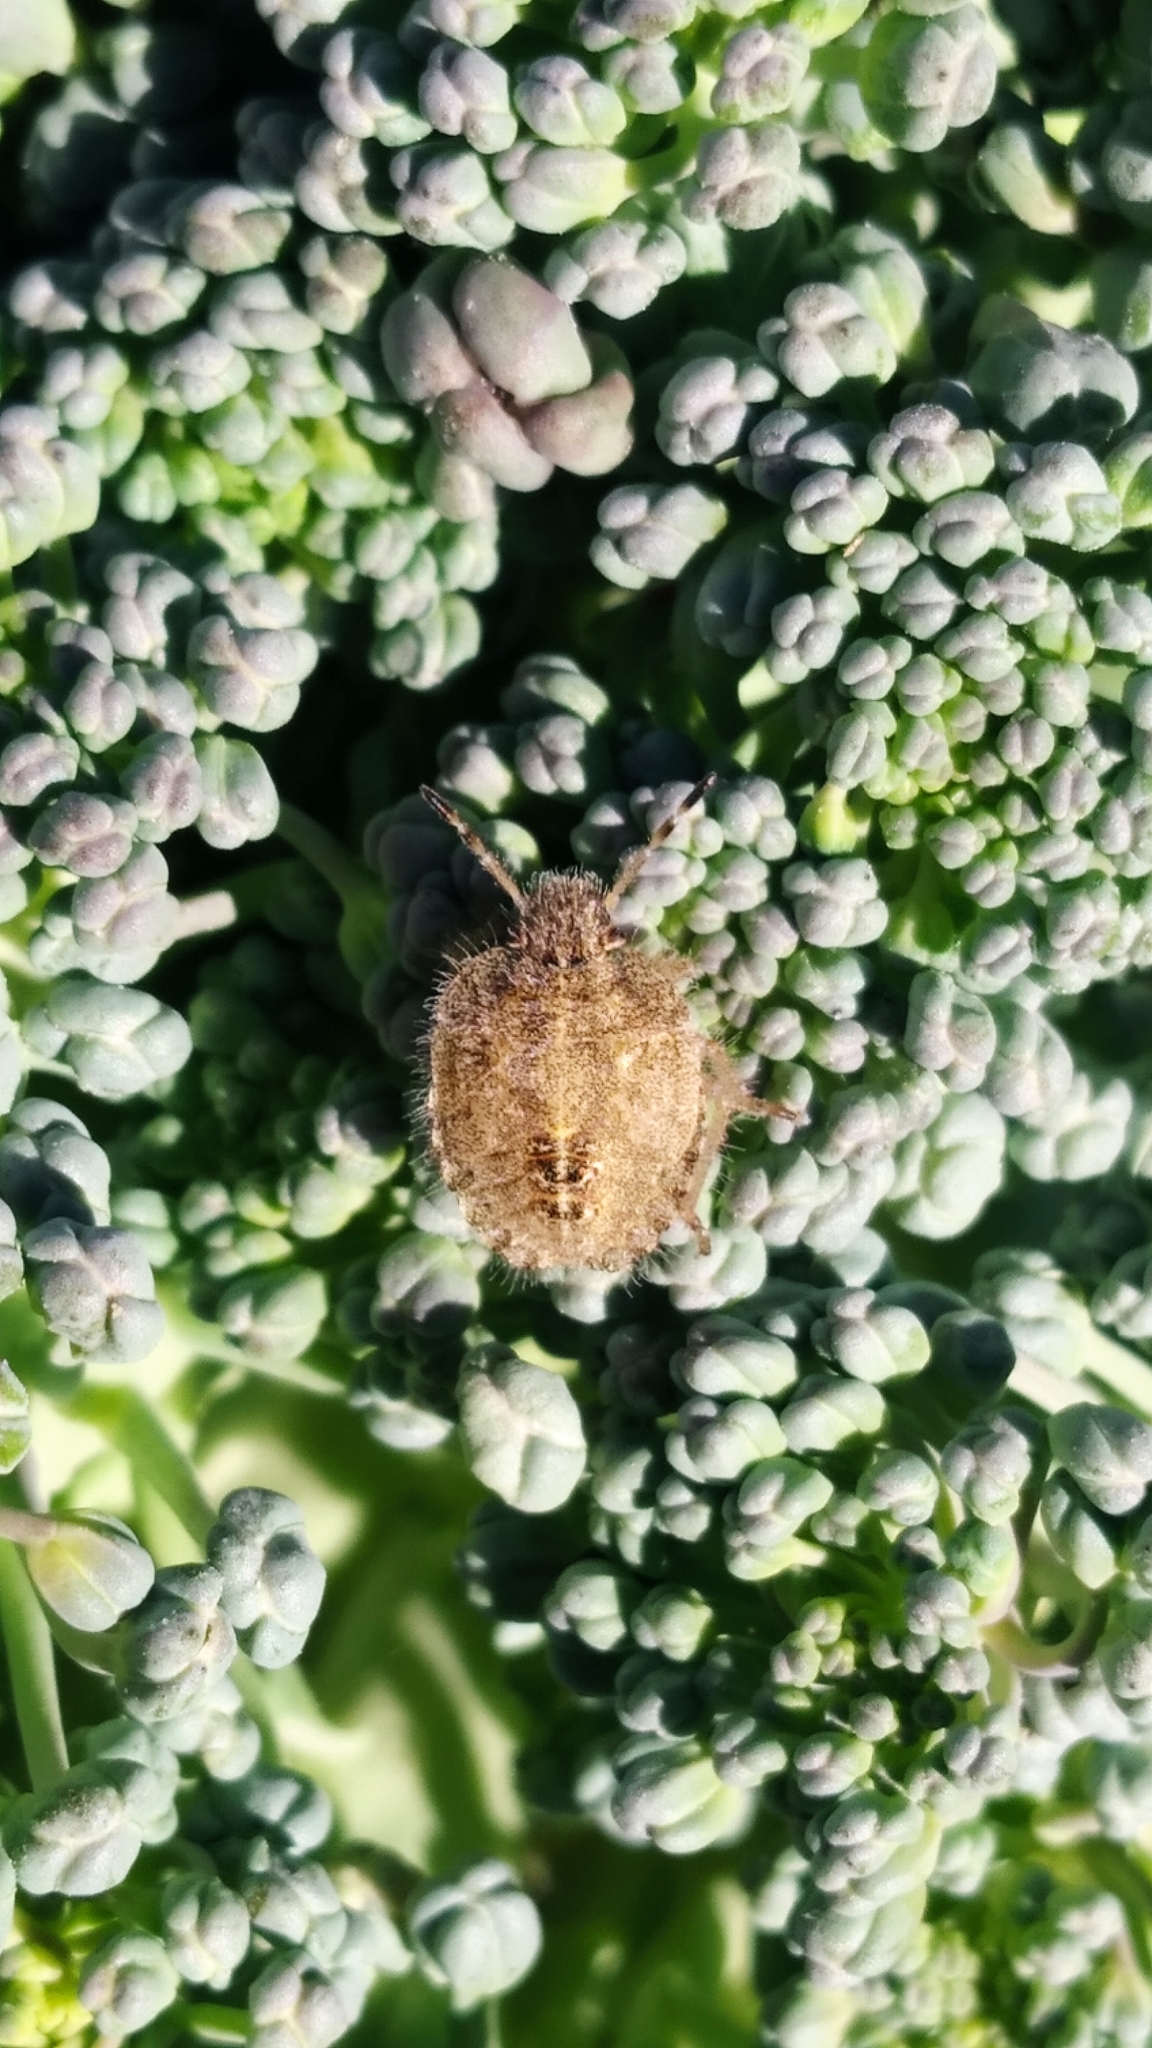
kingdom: Animalia
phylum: Arthropoda
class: Insecta
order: Hemiptera
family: Pentatomidae
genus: Dolycoris
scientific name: Dolycoris baccarum
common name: Sloe bug
